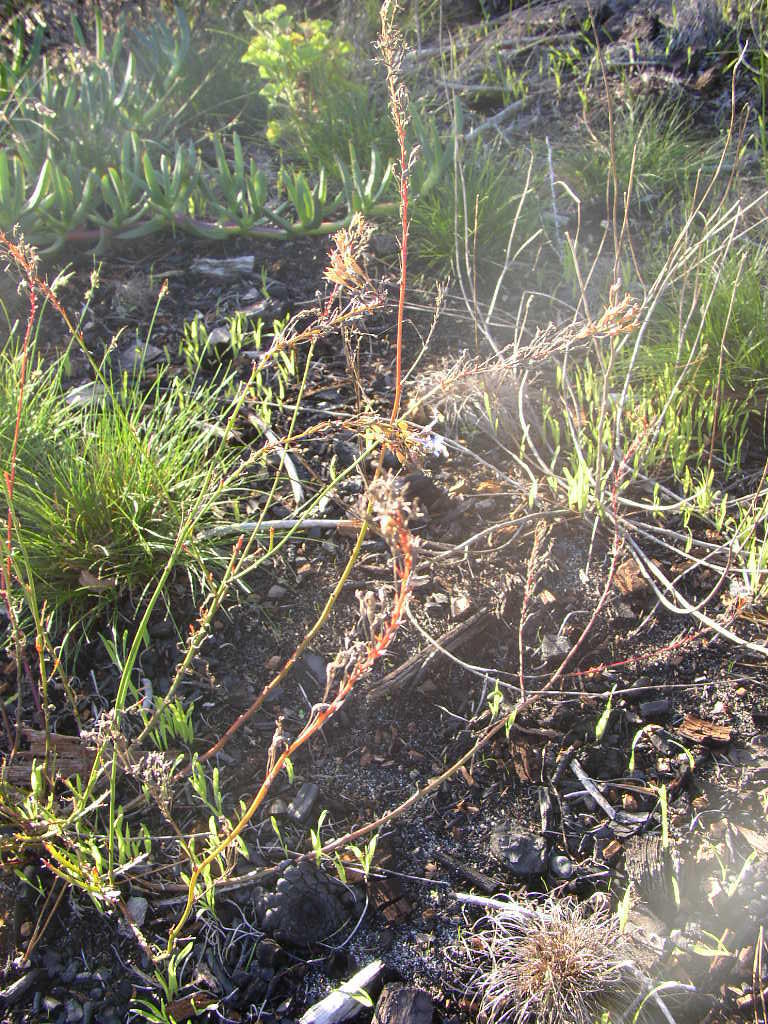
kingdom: Plantae
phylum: Tracheophyta
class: Magnoliopsida
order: Asterales
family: Campanulaceae
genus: Lobelia
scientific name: Lobelia comosa
